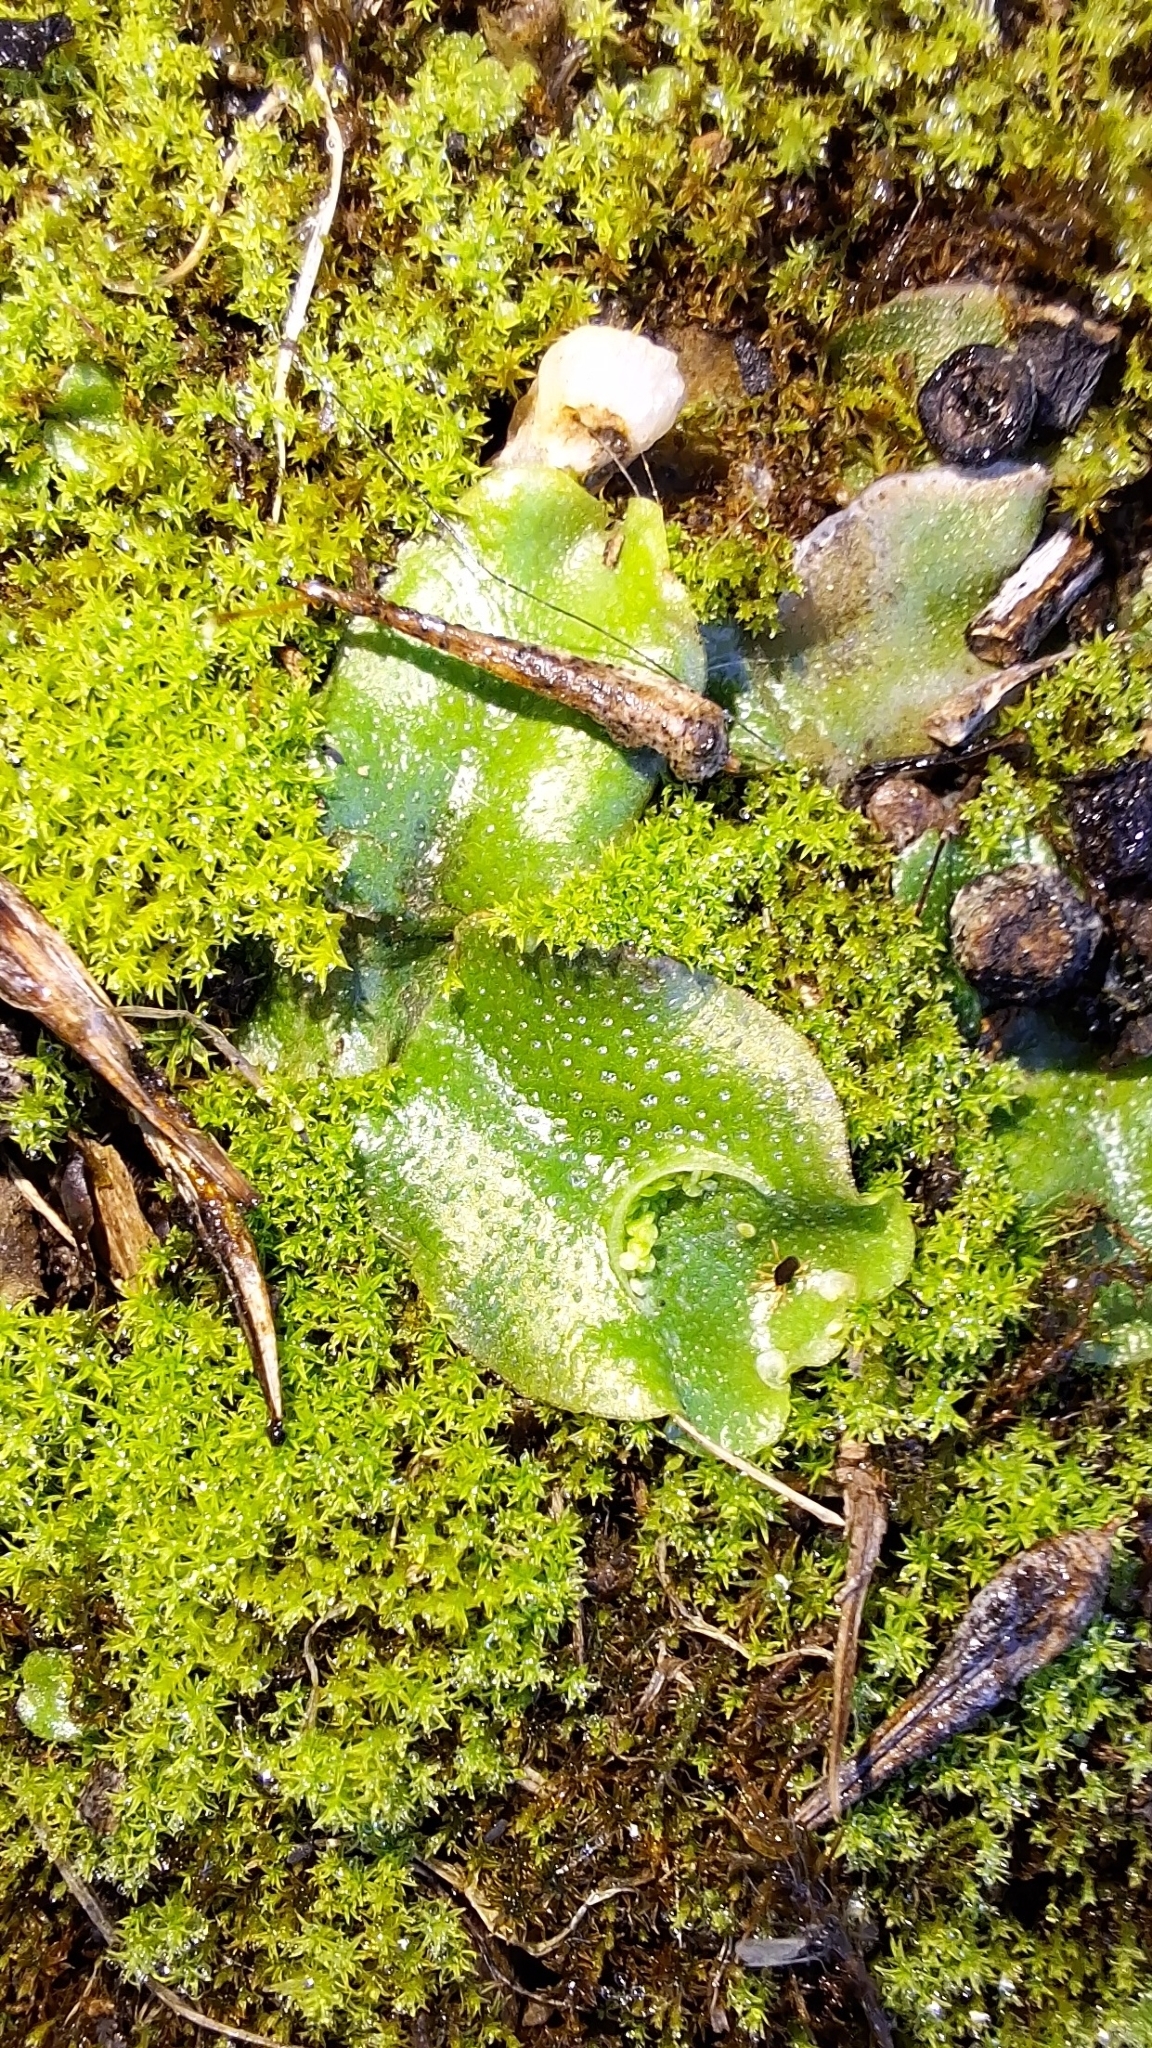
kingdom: Plantae
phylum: Marchantiophyta
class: Marchantiopsida
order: Lunulariales
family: Lunulariaceae
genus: Lunularia
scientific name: Lunularia cruciata
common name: Crescent-cup liverwort
